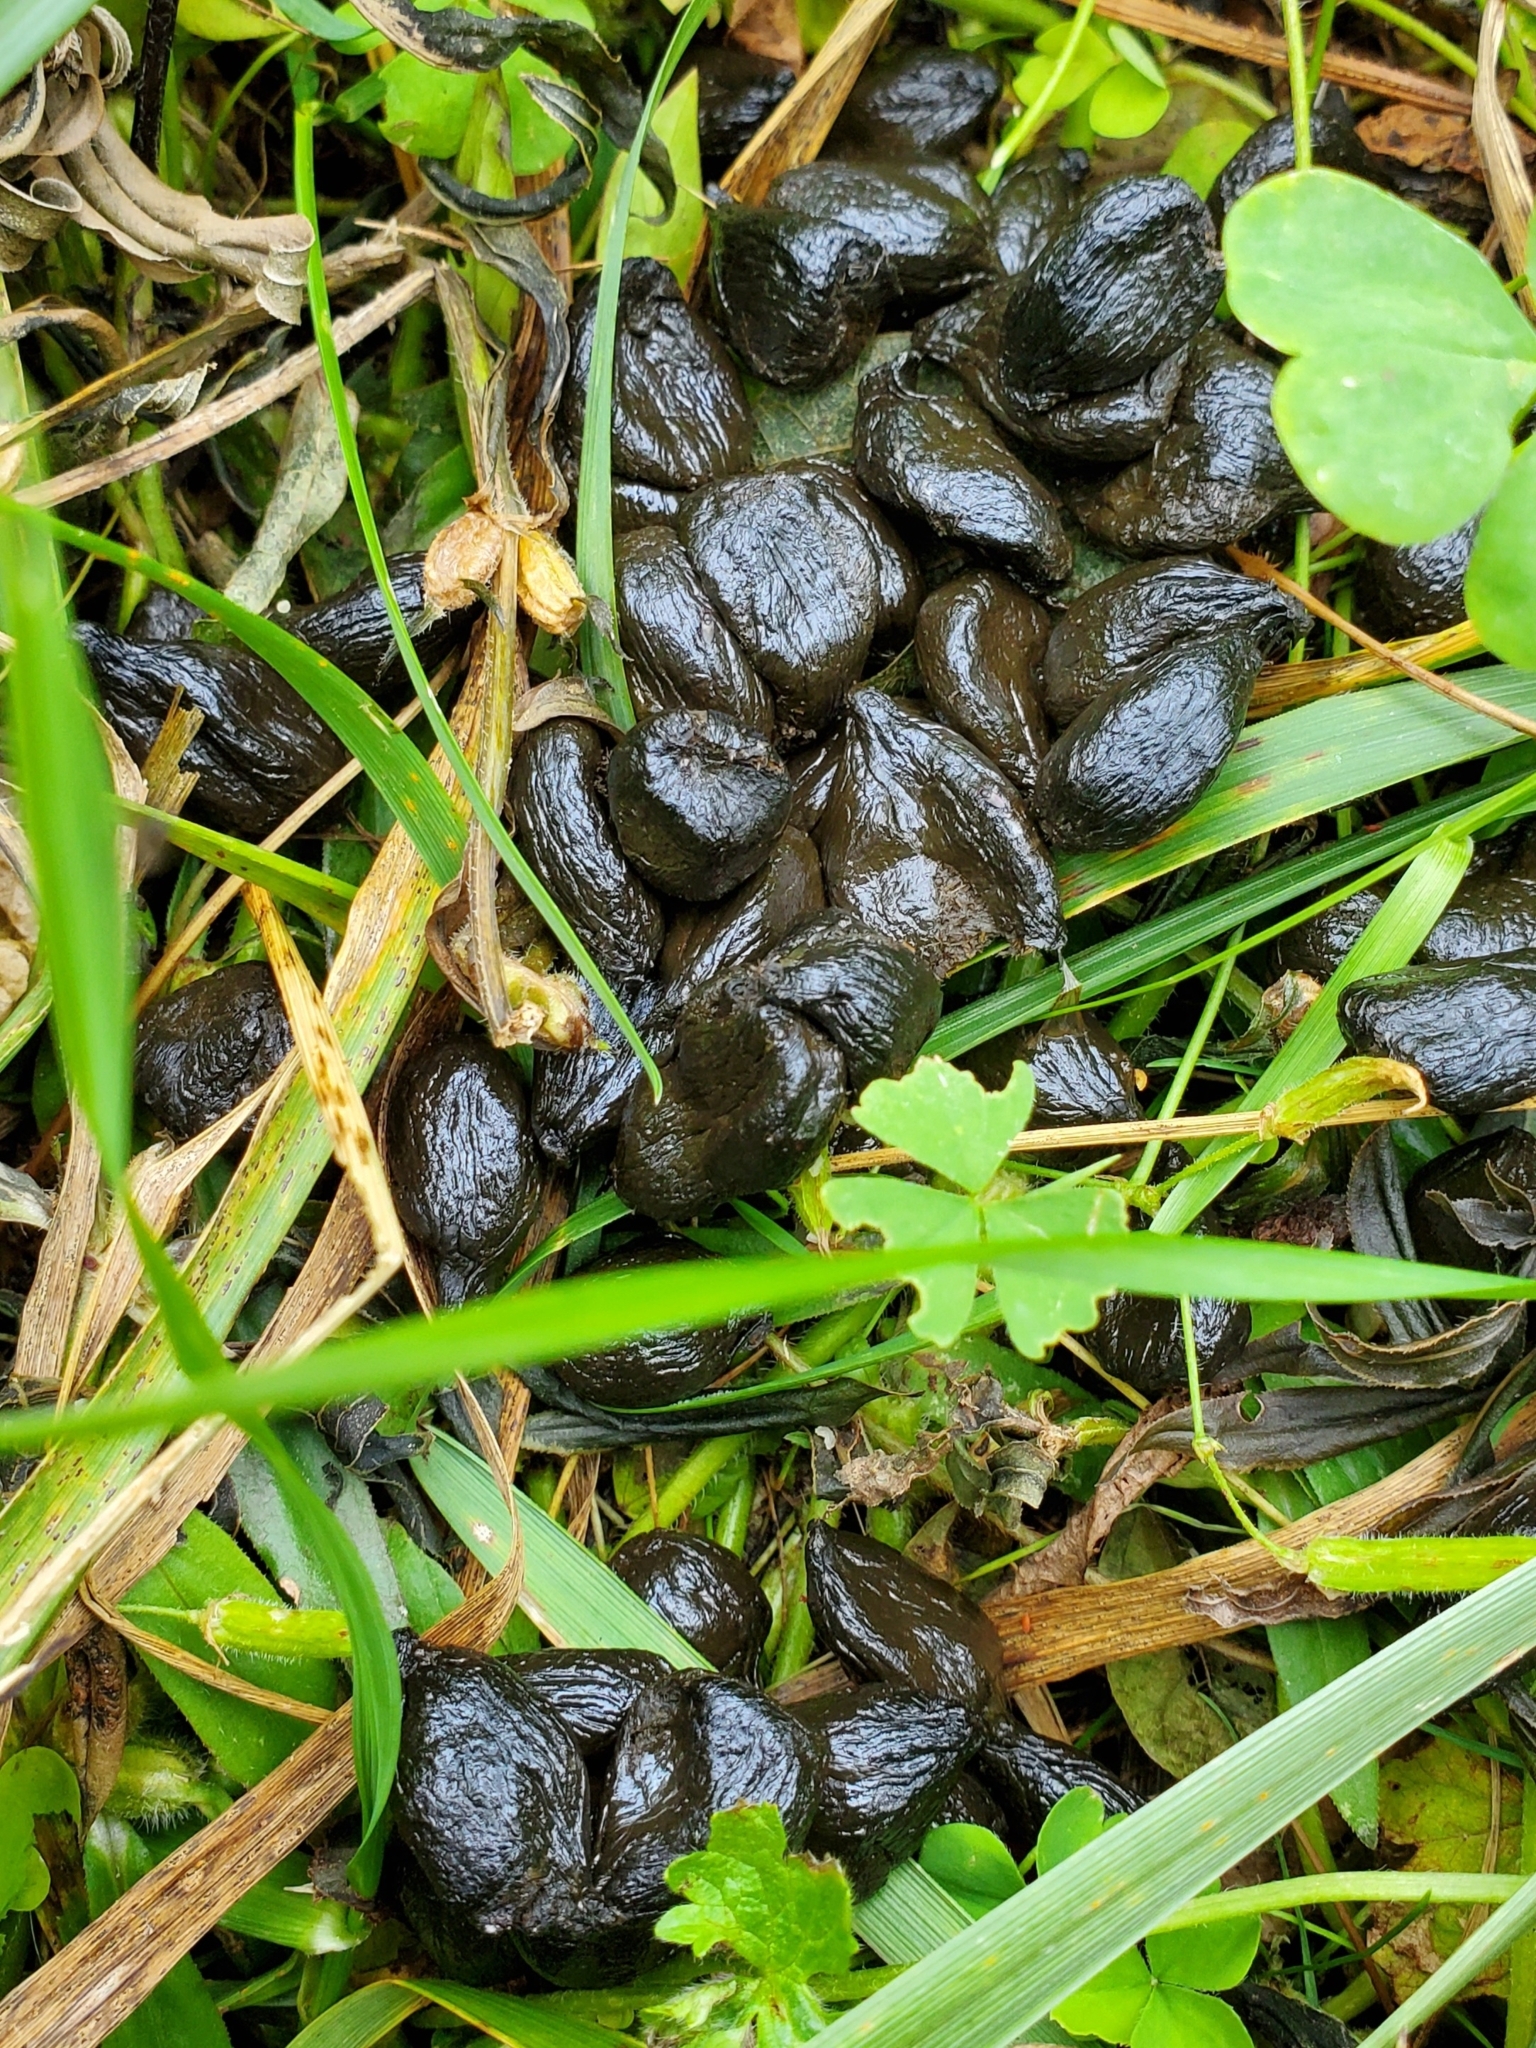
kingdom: Animalia
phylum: Chordata
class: Mammalia
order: Artiodactyla
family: Cervidae
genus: Odocoileus
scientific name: Odocoileus virginianus
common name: White-tailed deer
